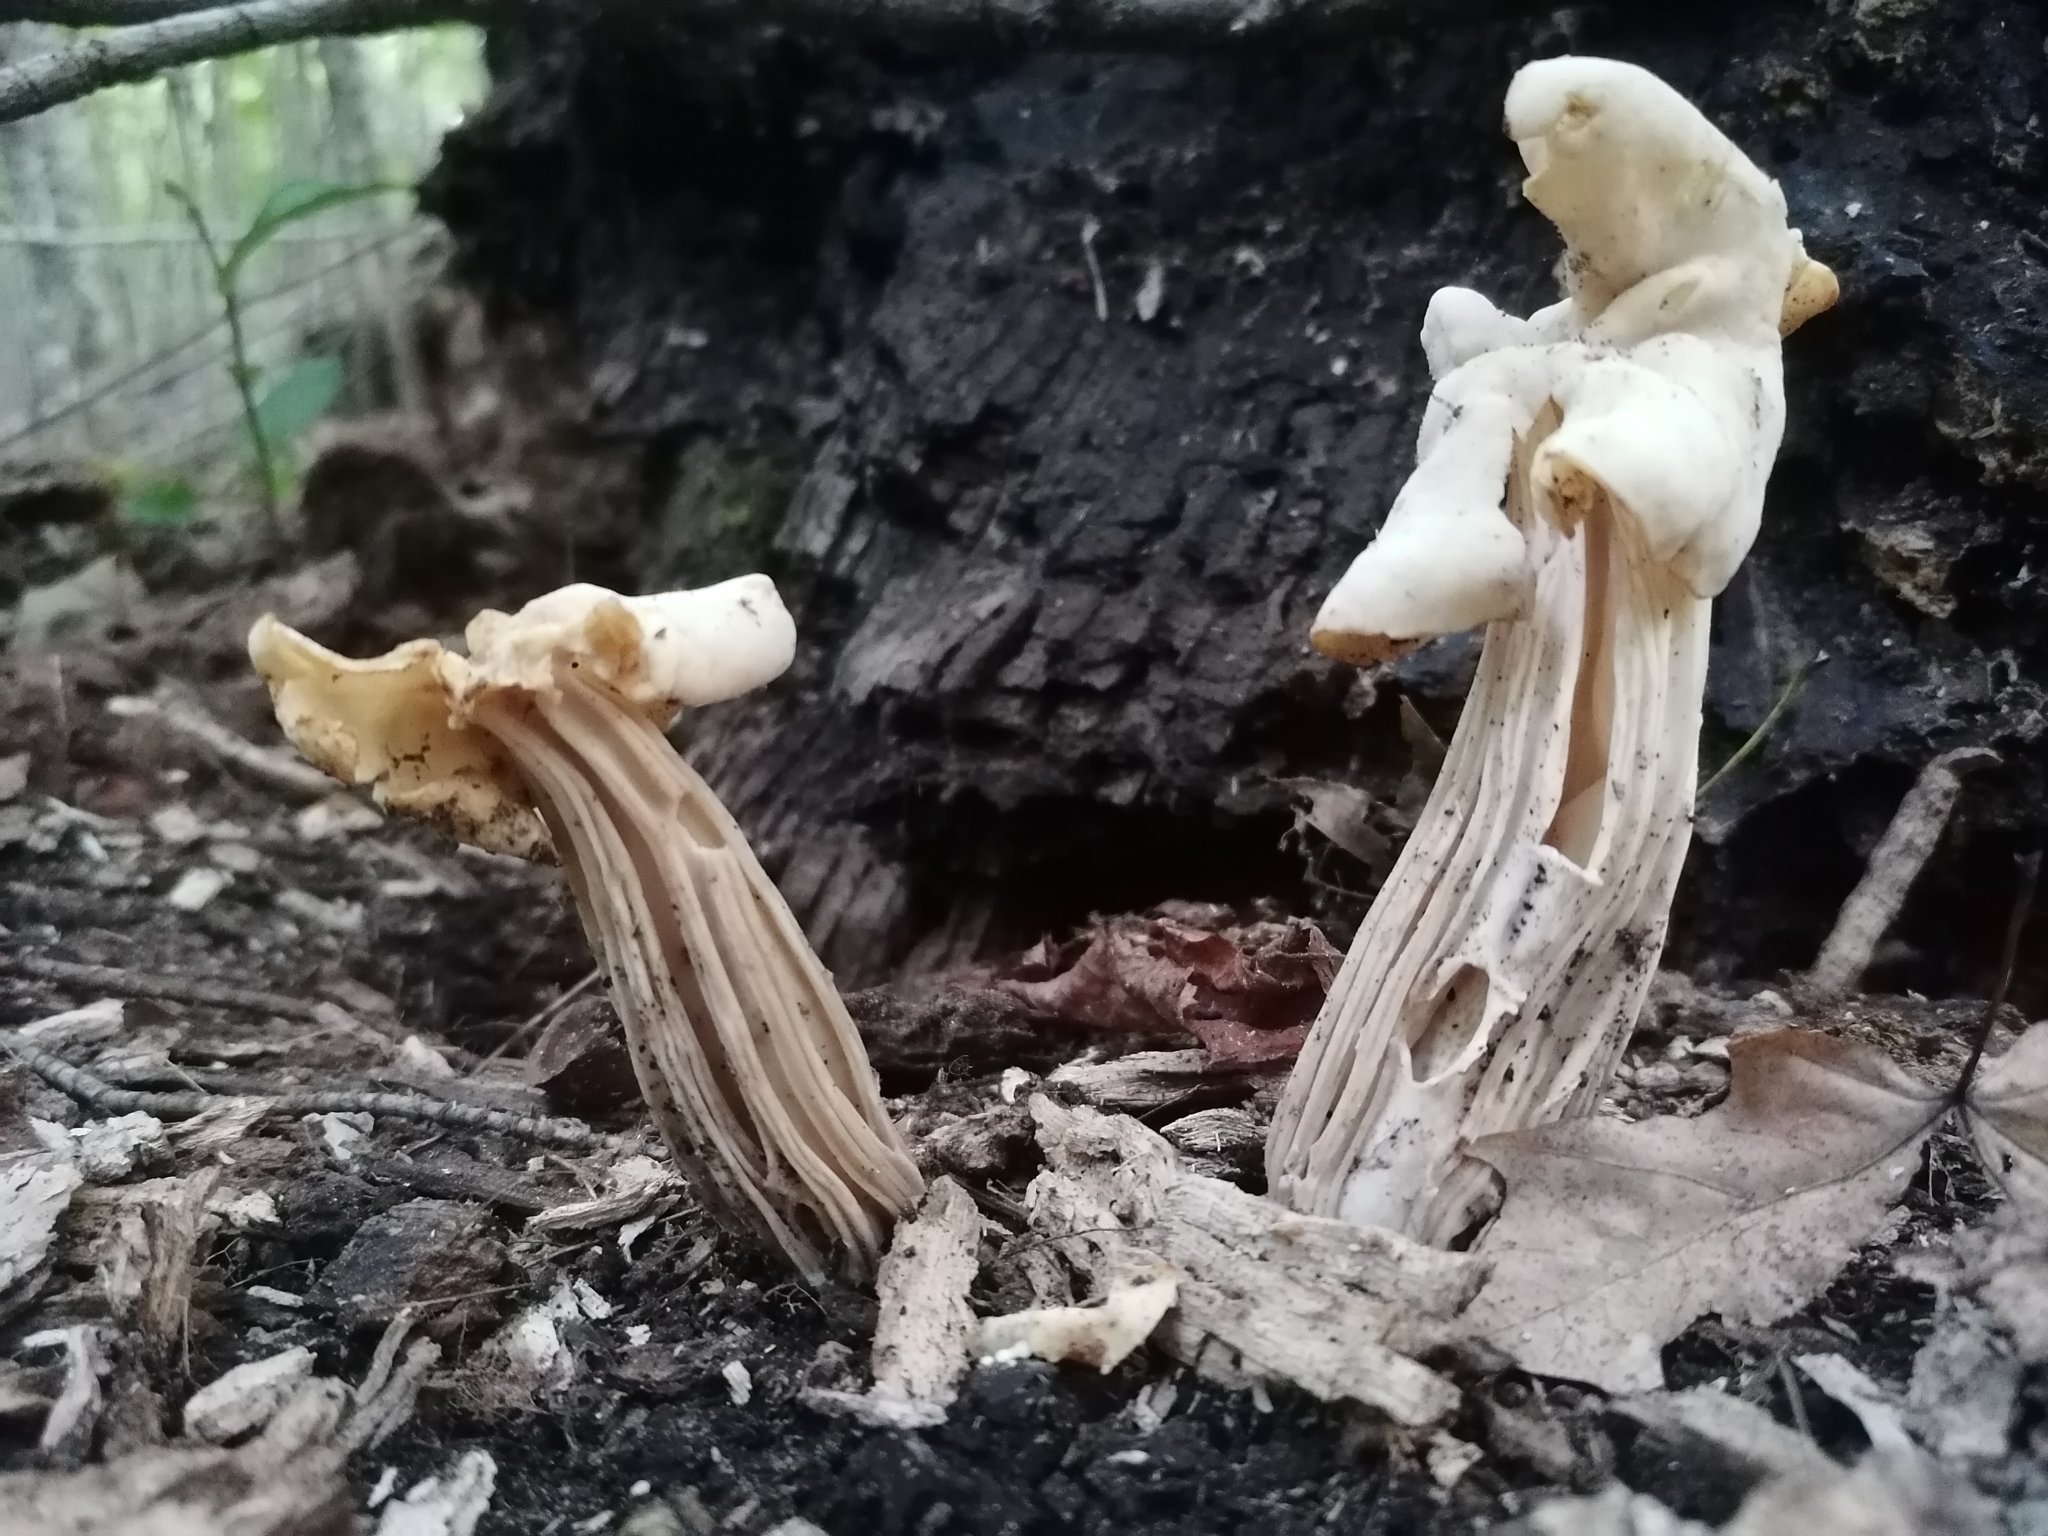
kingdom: Fungi
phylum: Ascomycota
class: Pezizomycetes
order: Pezizales
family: Helvellaceae
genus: Helvella
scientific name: Helvella crispa
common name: White saddle
